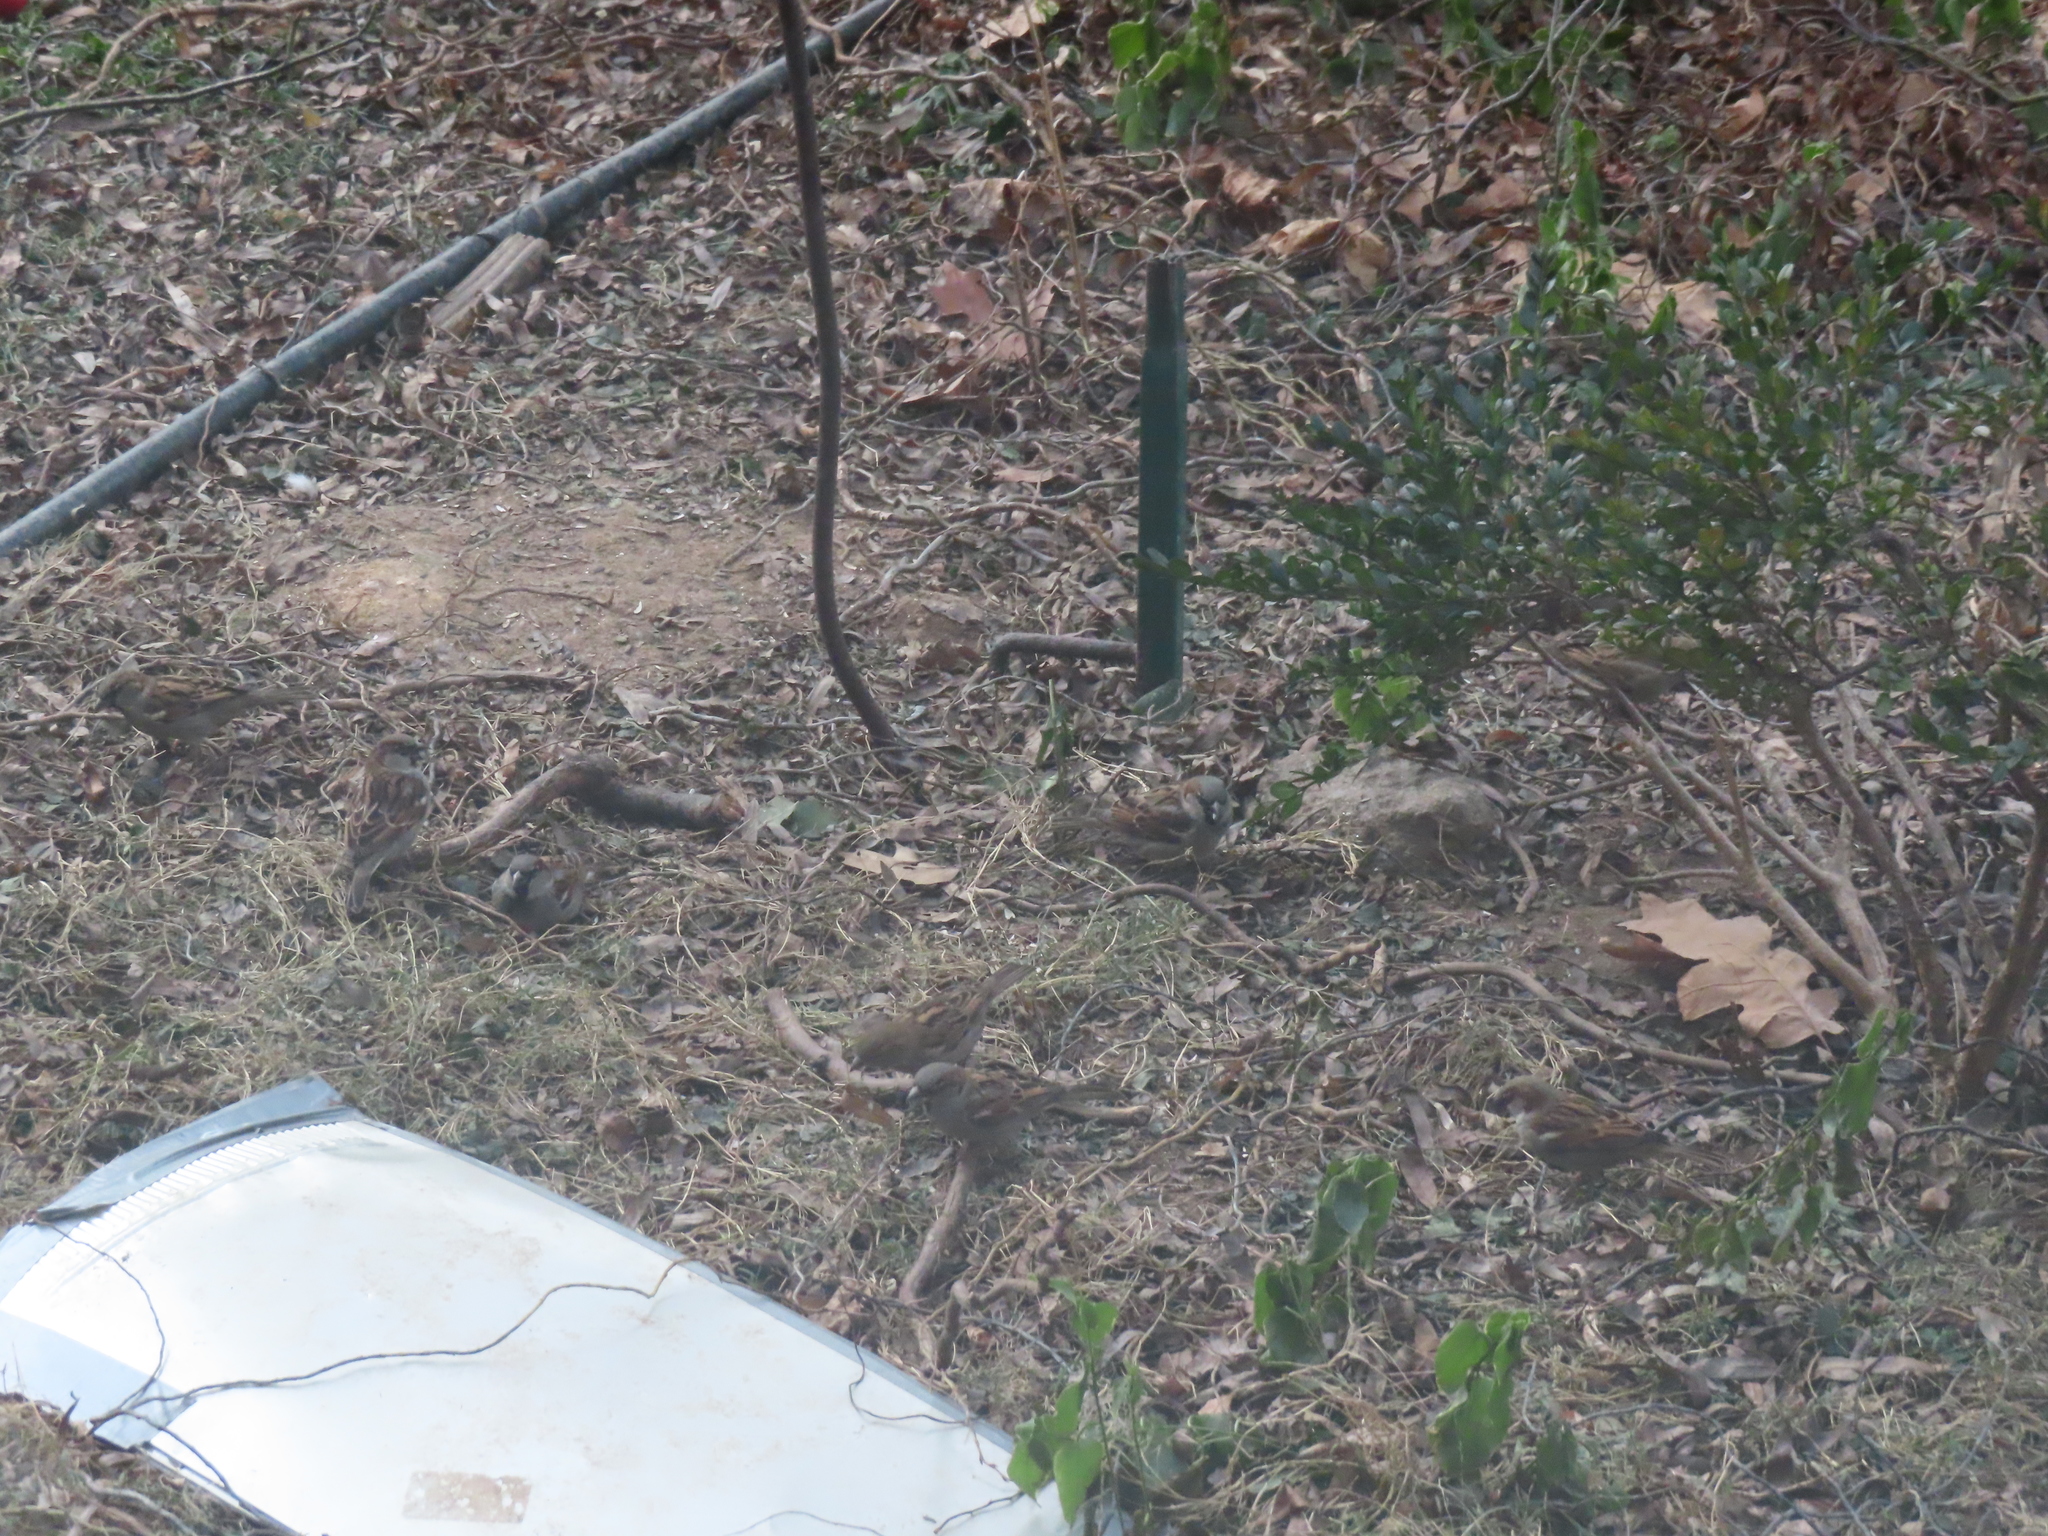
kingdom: Animalia
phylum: Chordata
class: Aves
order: Passeriformes
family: Passeridae
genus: Passer
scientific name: Passer domesticus
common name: House sparrow
